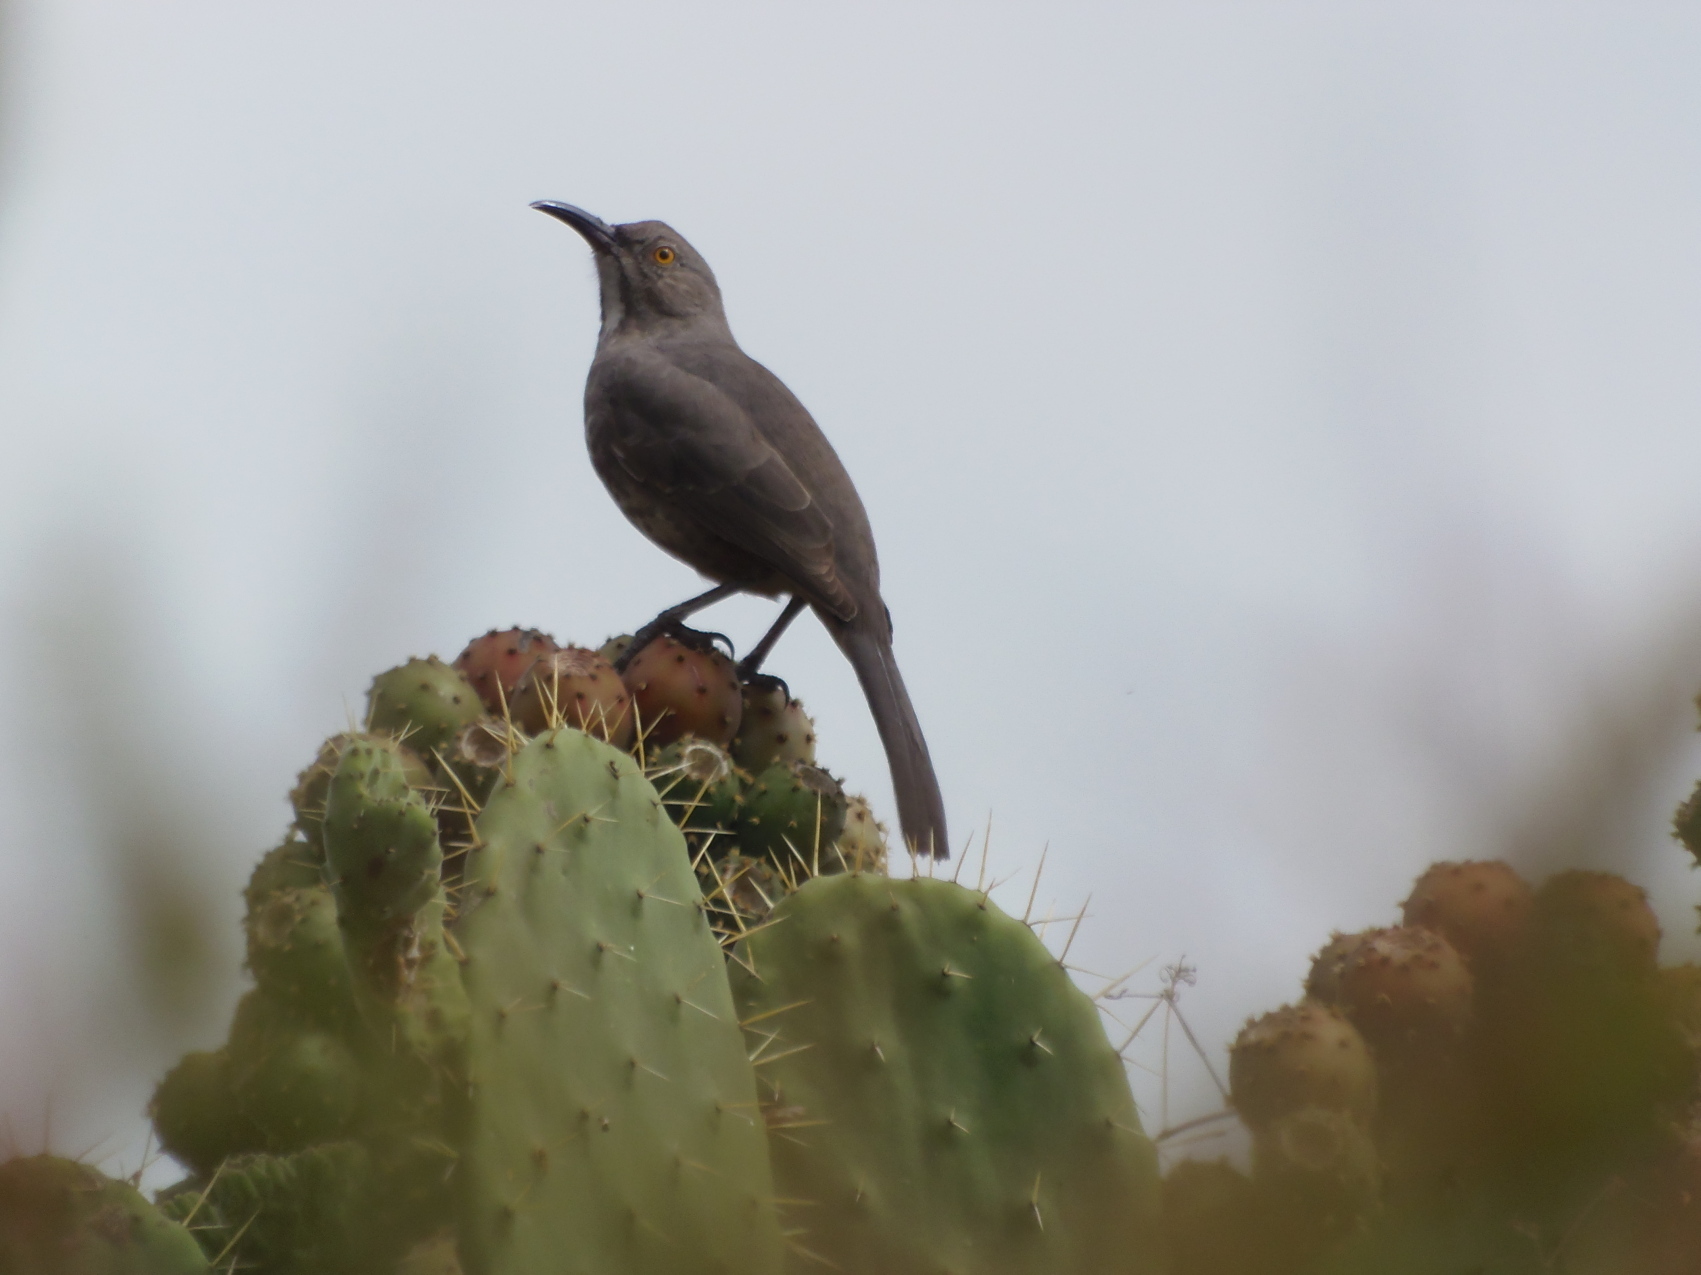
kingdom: Animalia
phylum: Chordata
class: Aves
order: Passeriformes
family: Mimidae
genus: Toxostoma
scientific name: Toxostoma curvirostre
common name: Curve-billed thrasher
